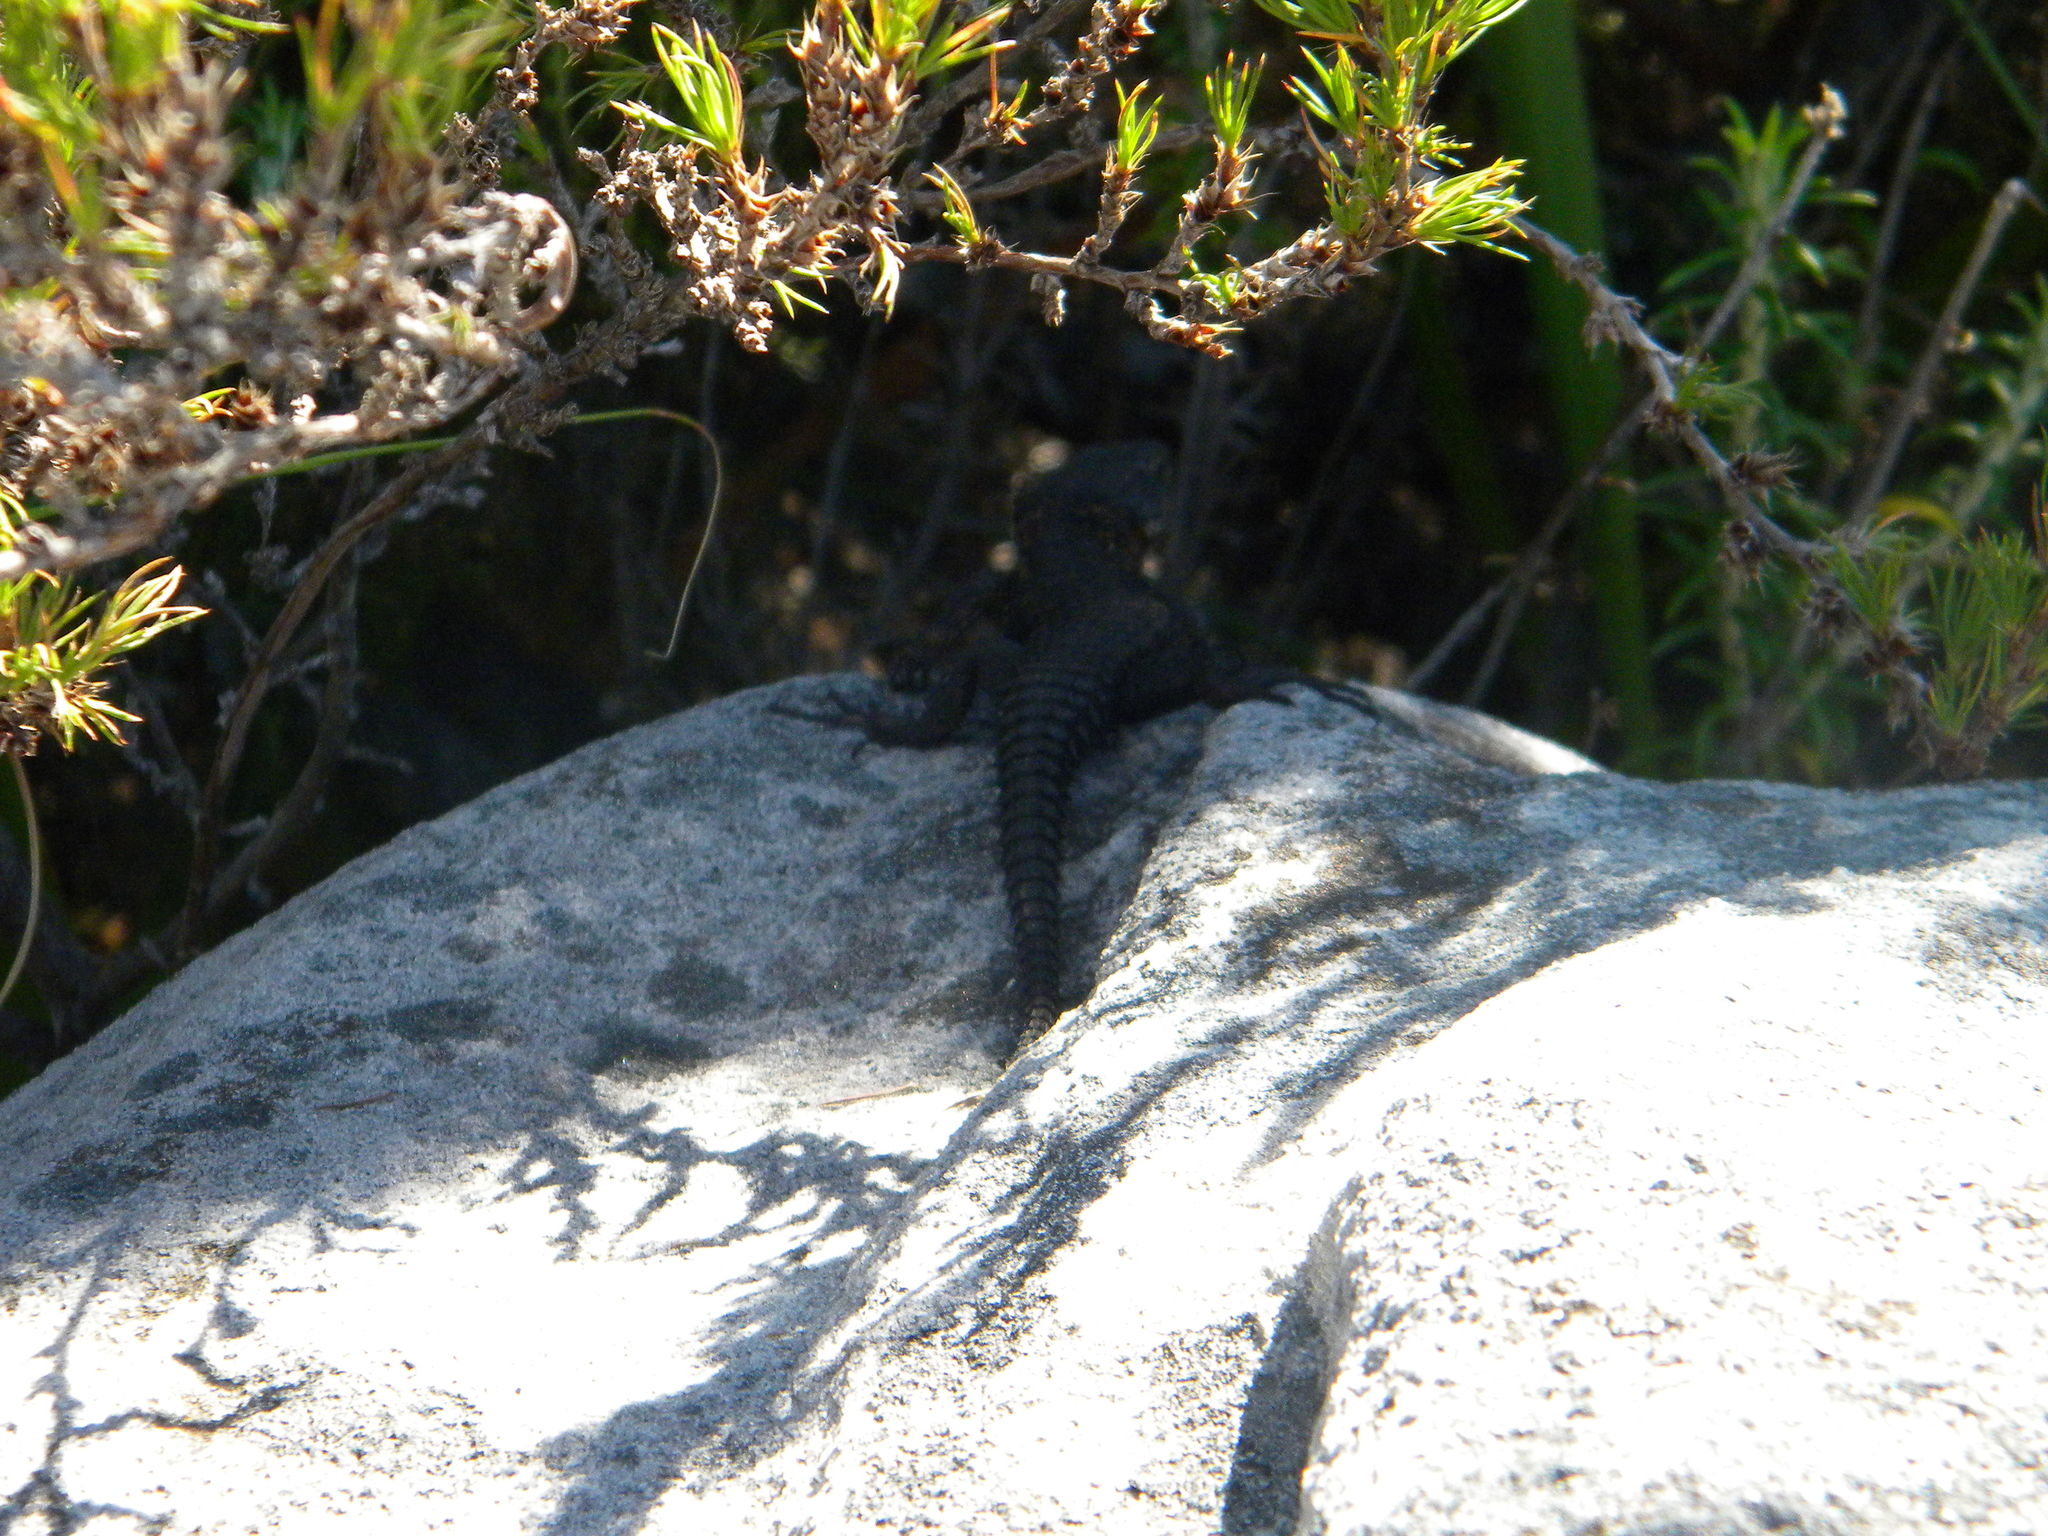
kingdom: Animalia
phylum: Chordata
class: Squamata
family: Cordylidae
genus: Cordylus
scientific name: Cordylus niger
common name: Black girdled lizard
